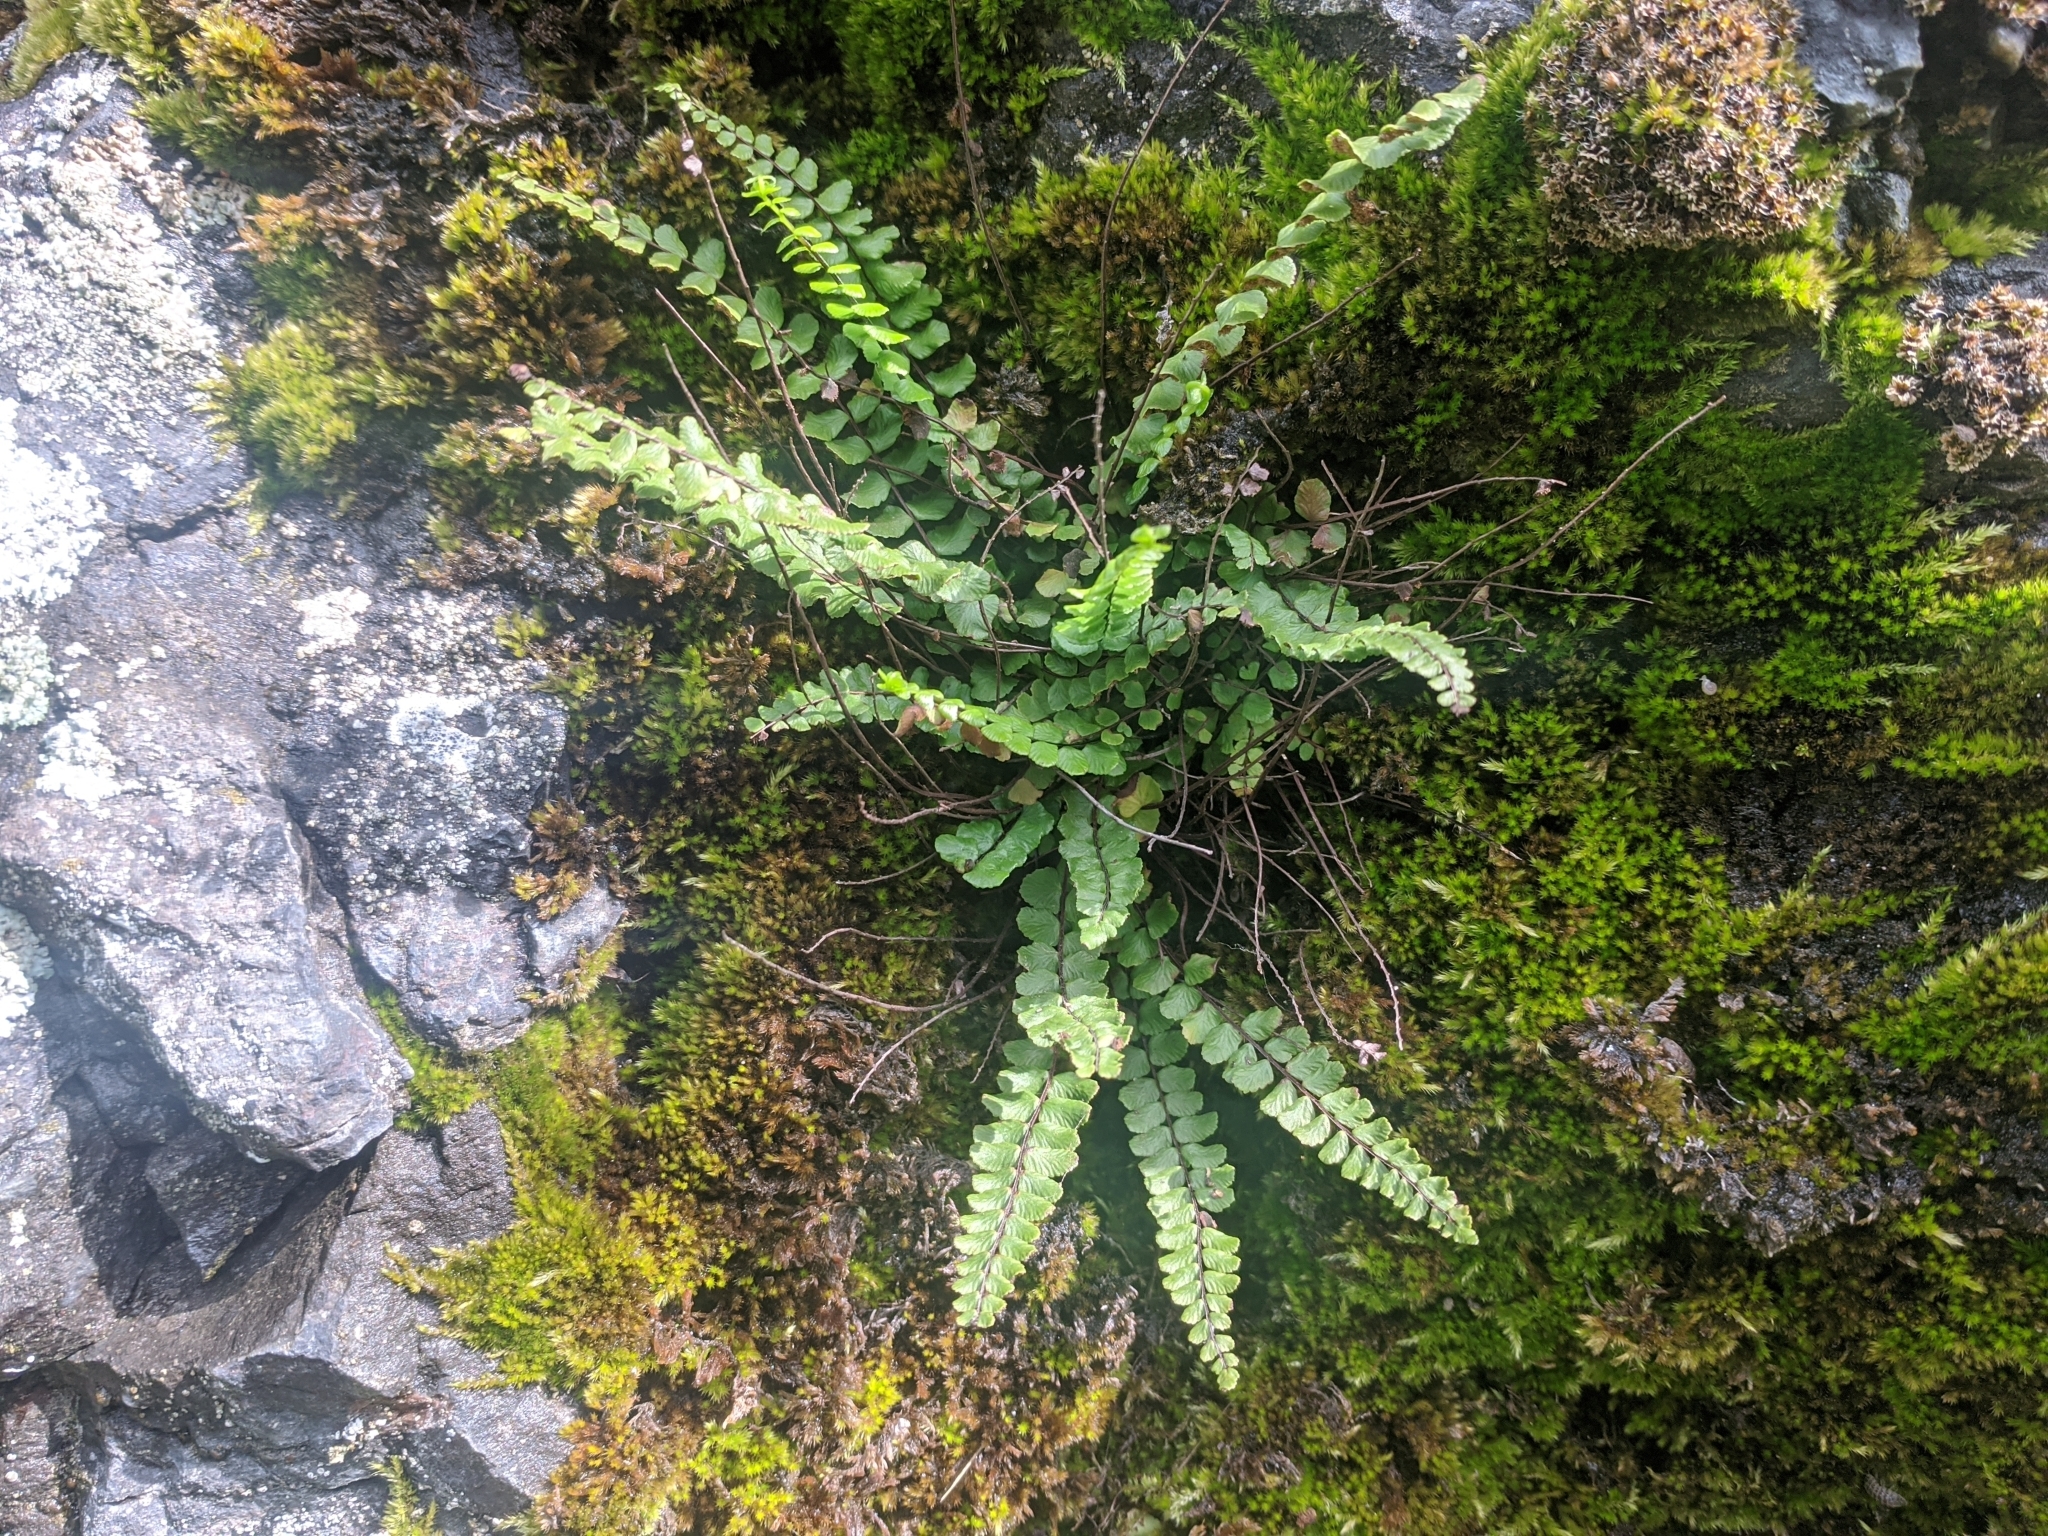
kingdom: Plantae
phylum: Tracheophyta
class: Polypodiopsida
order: Polypodiales
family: Aspleniaceae
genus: Asplenium
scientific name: Asplenium trichomanes
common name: Maidenhair spleenwort
